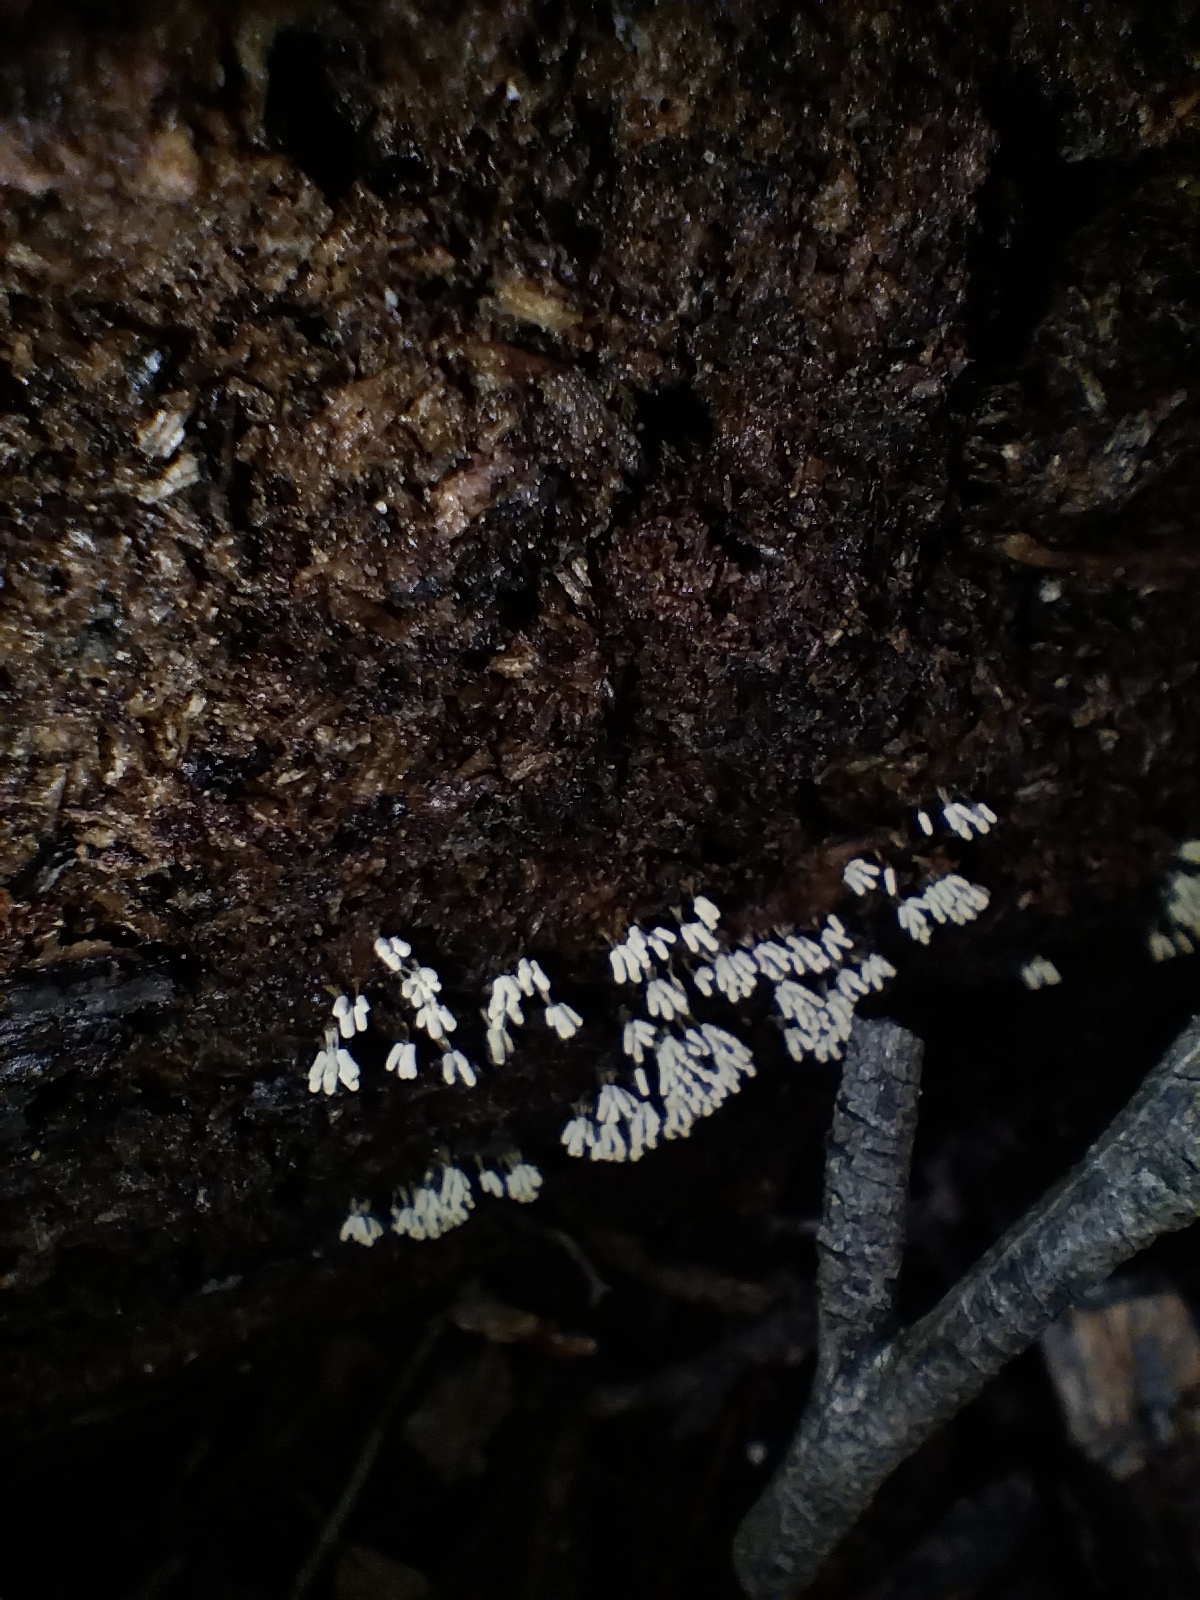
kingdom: Protozoa
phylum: Mycetozoa
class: Myxomycetes
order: Trichiales
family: Arcyriaceae
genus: Arcyria
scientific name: Arcyria cinerea
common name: White carnival candy slime mold
